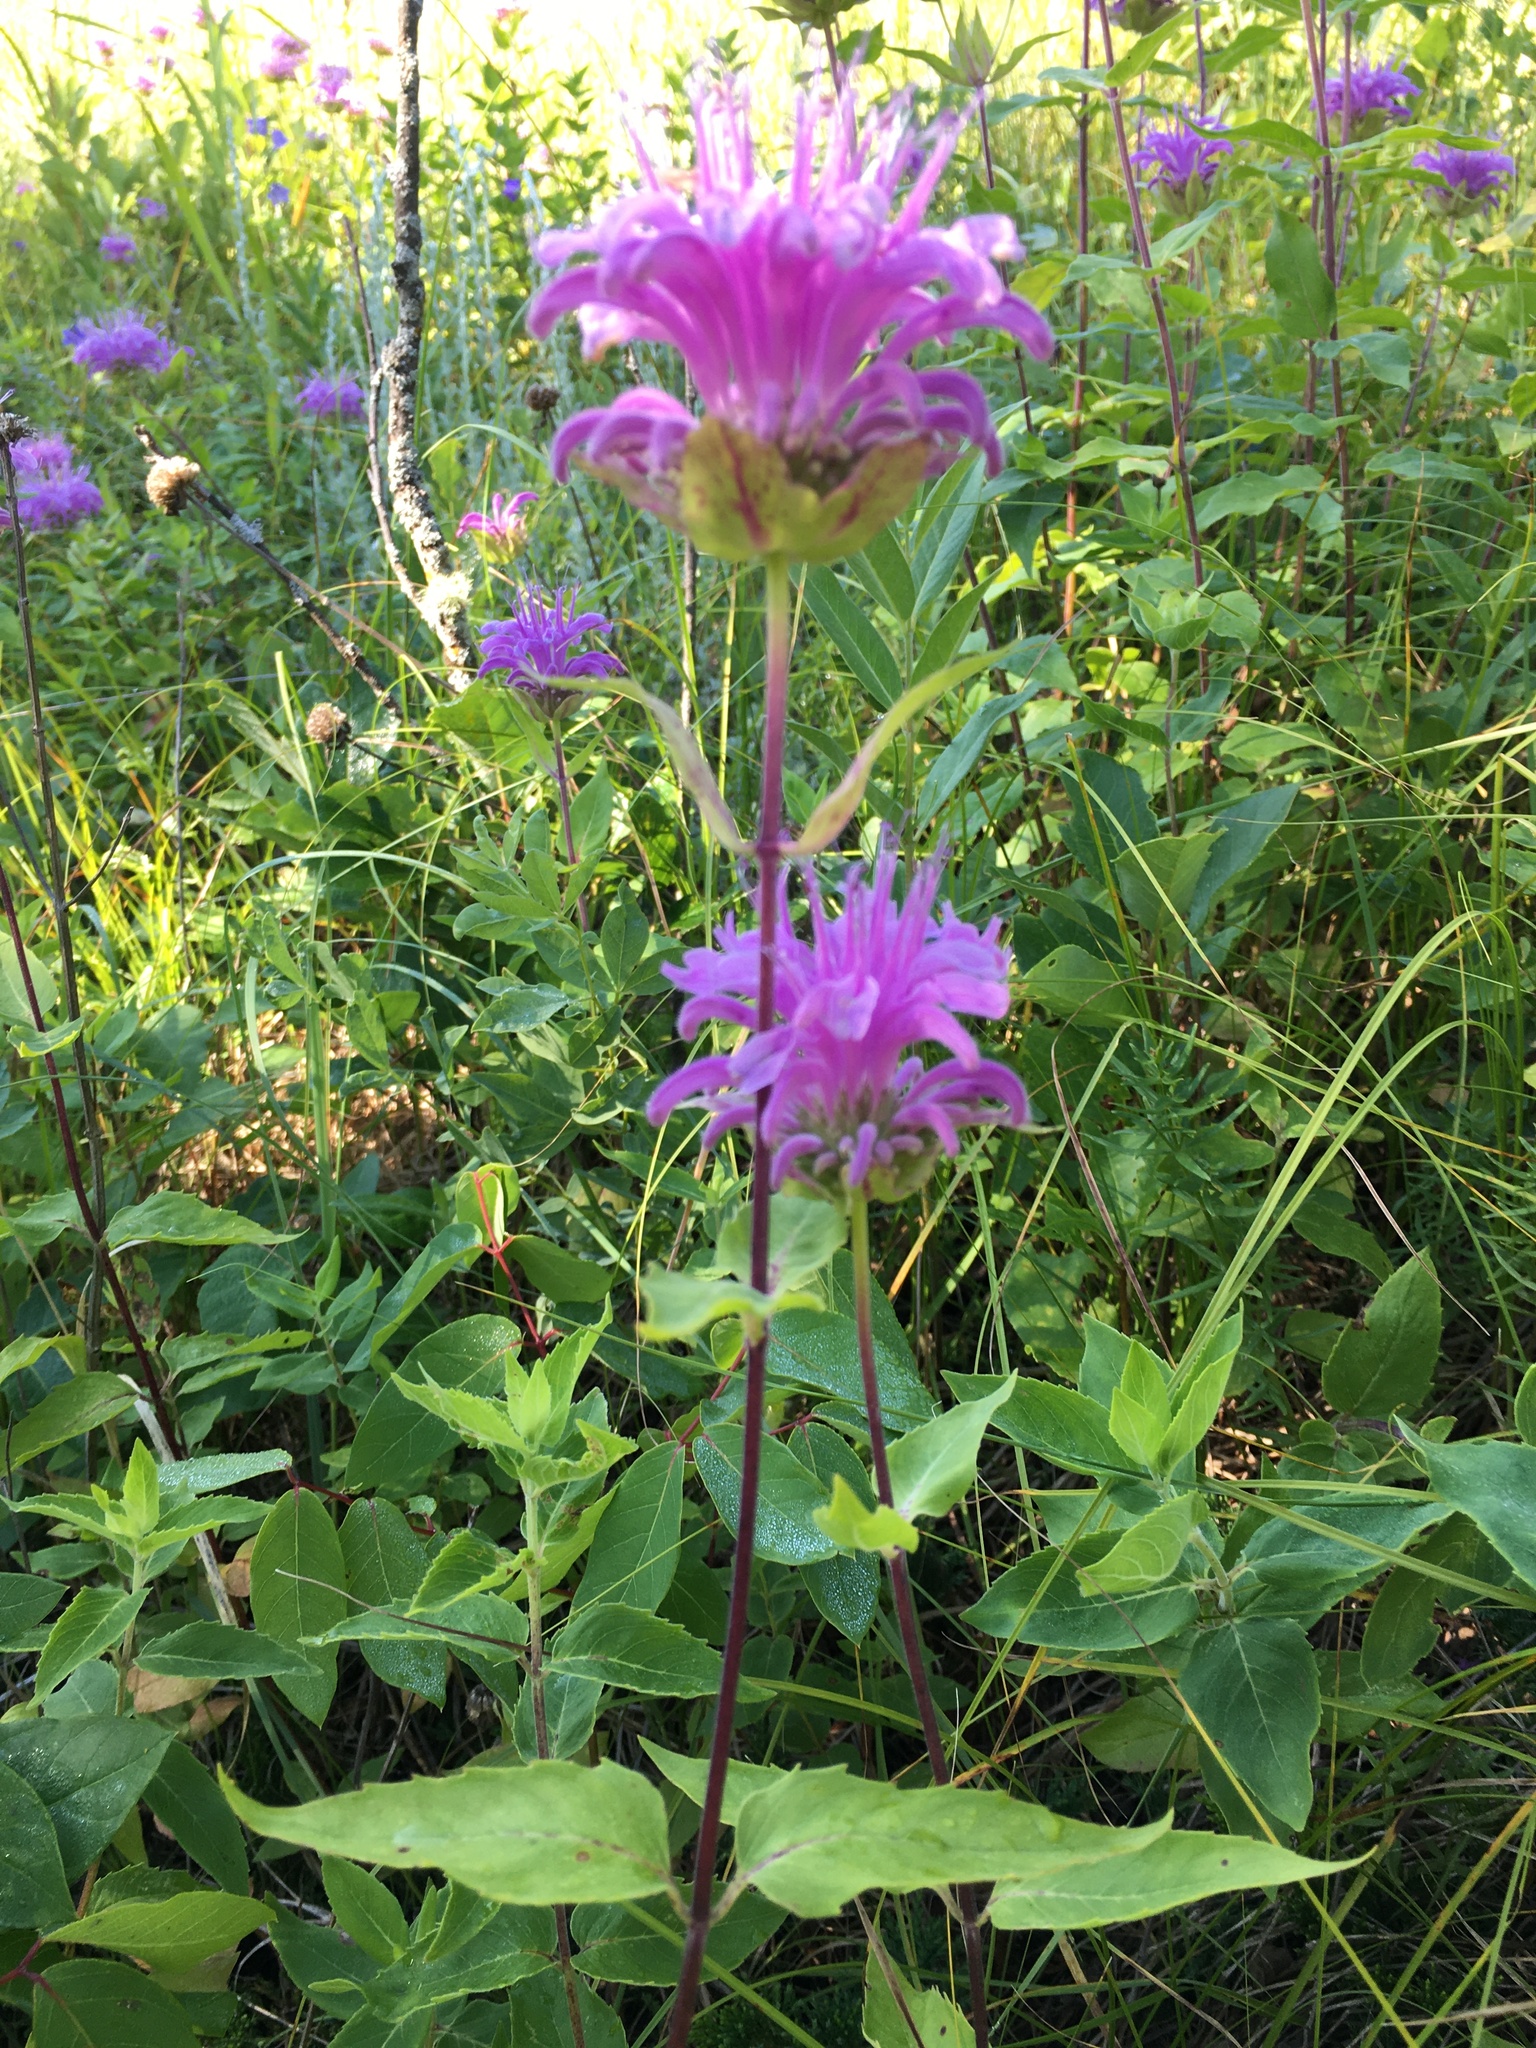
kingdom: Plantae
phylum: Tracheophyta
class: Magnoliopsida
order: Lamiales
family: Lamiaceae
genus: Monarda
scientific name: Monarda fistulosa
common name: Purple beebalm
